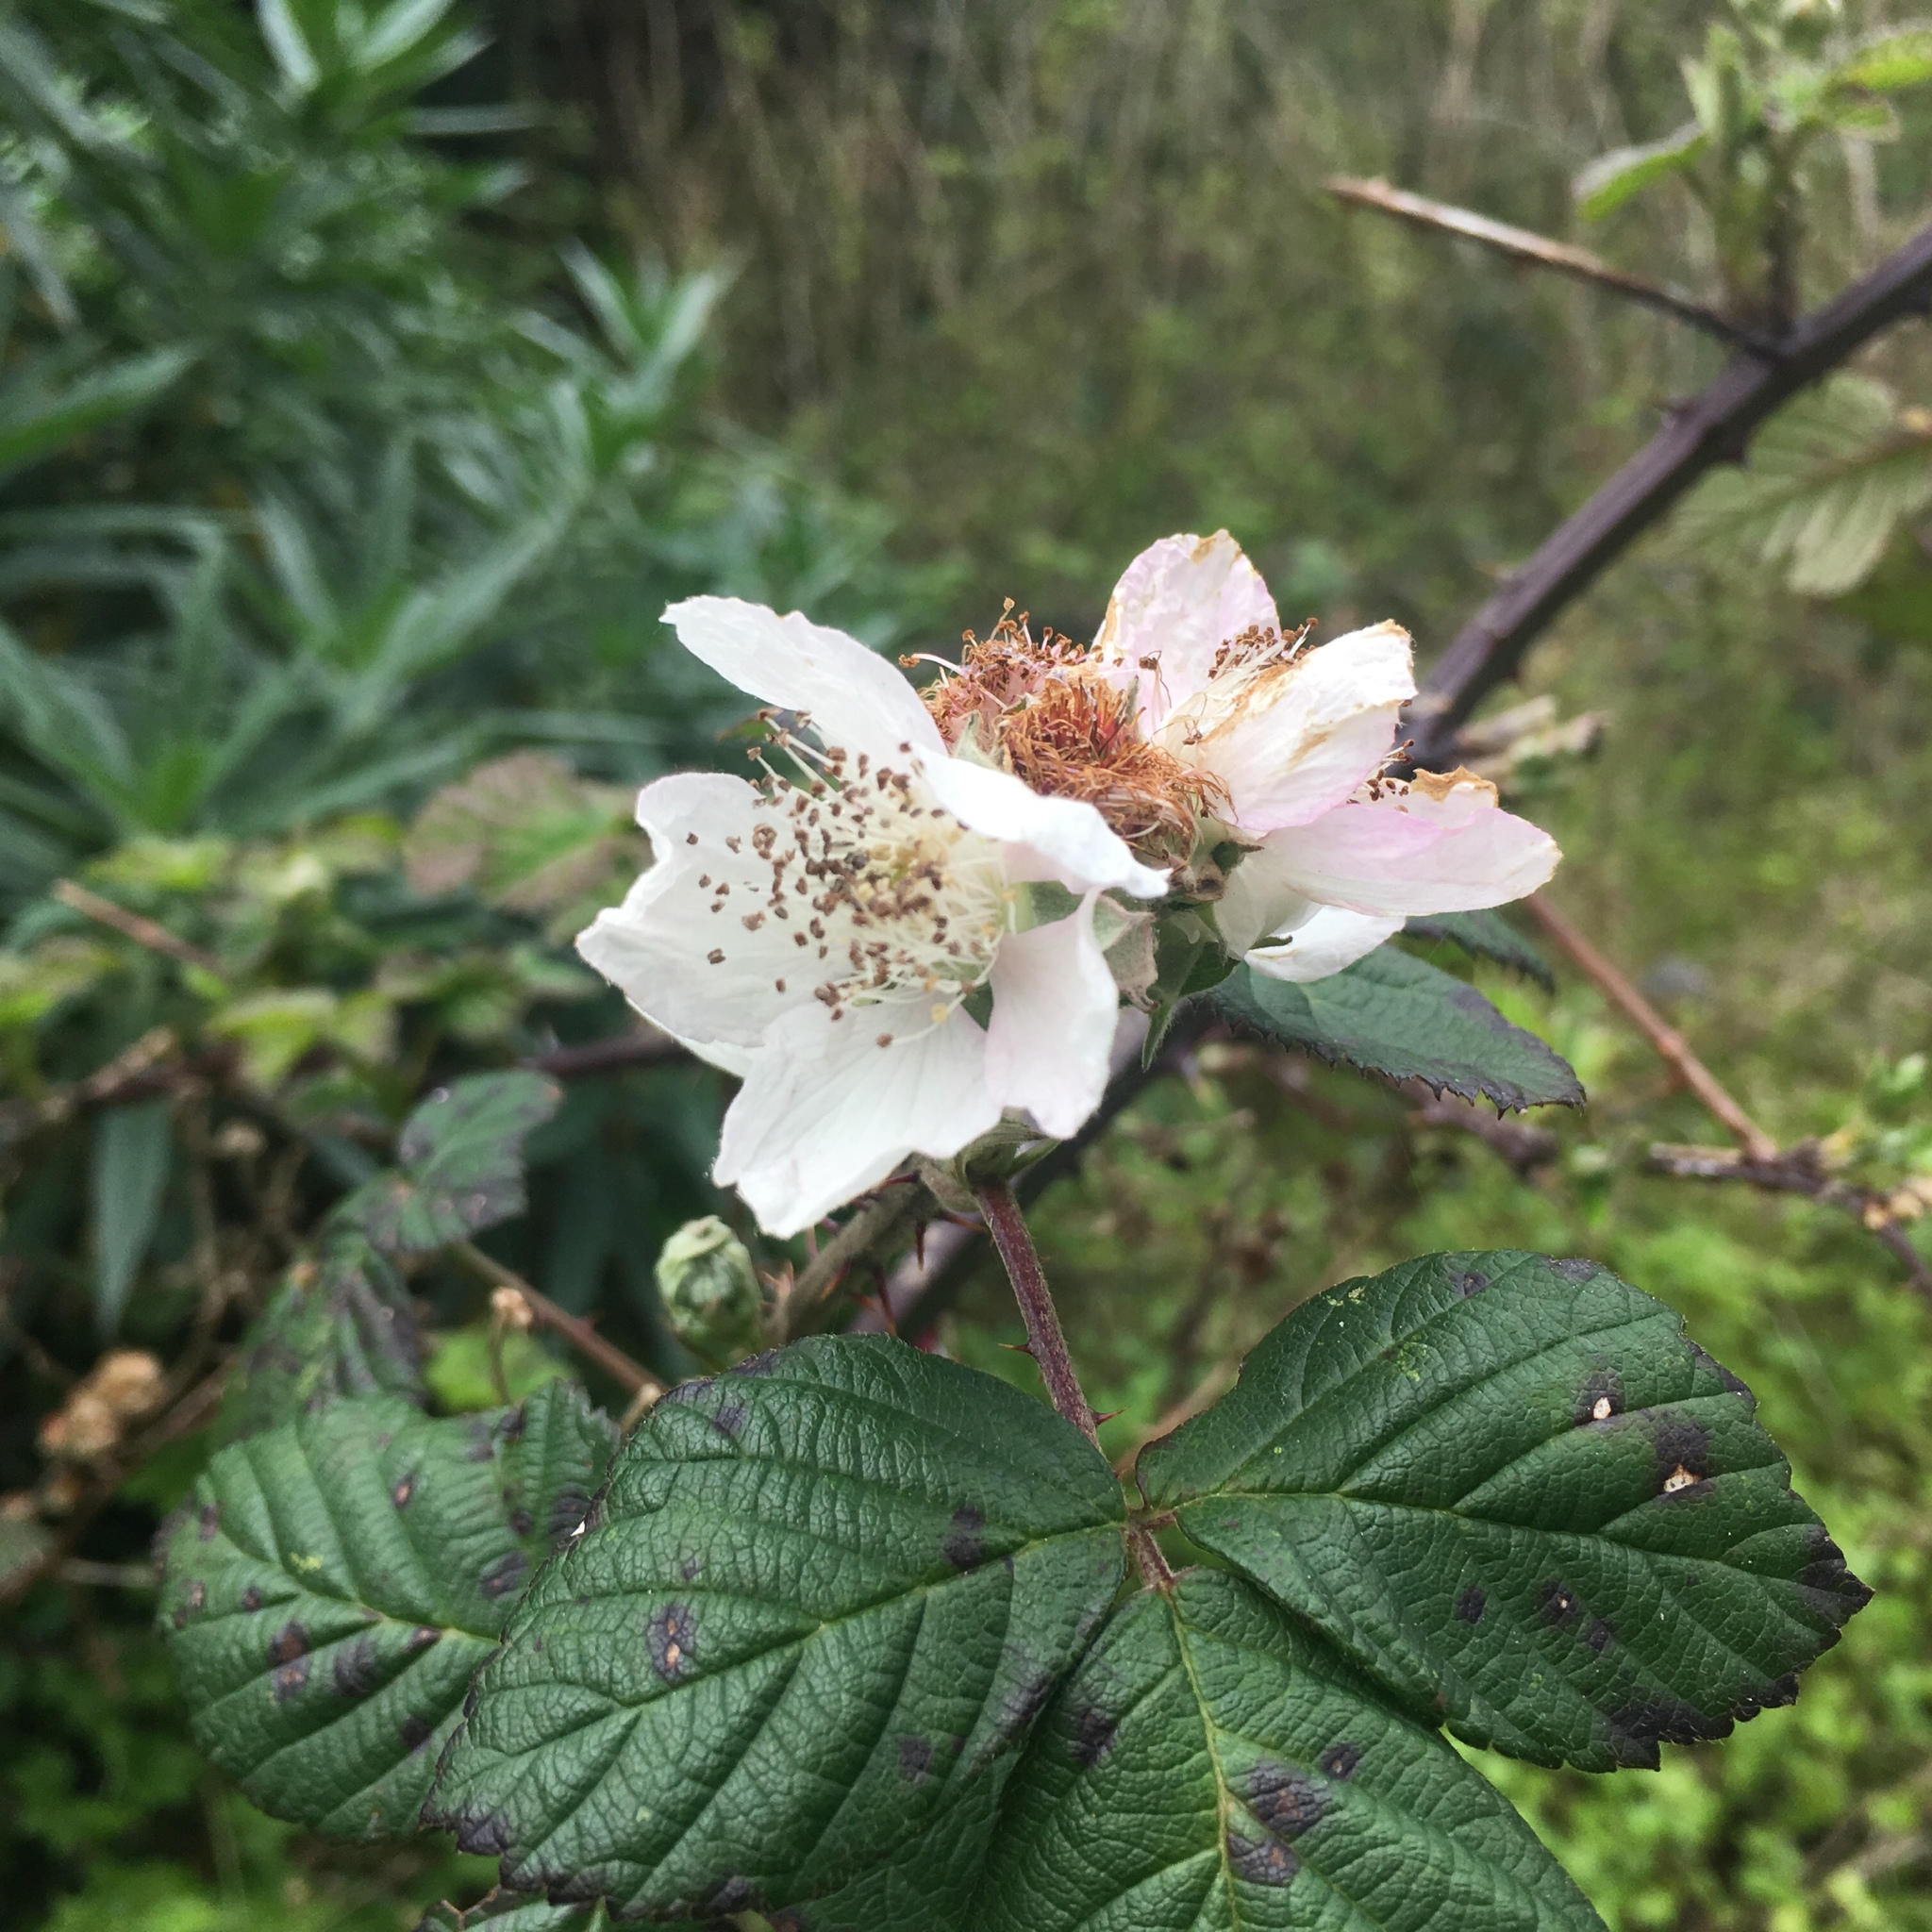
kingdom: Plantae
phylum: Tracheophyta
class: Magnoliopsida
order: Rosales
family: Rosaceae
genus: Rubus
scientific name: Rubus armeniacus
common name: Himalayan blackberry
